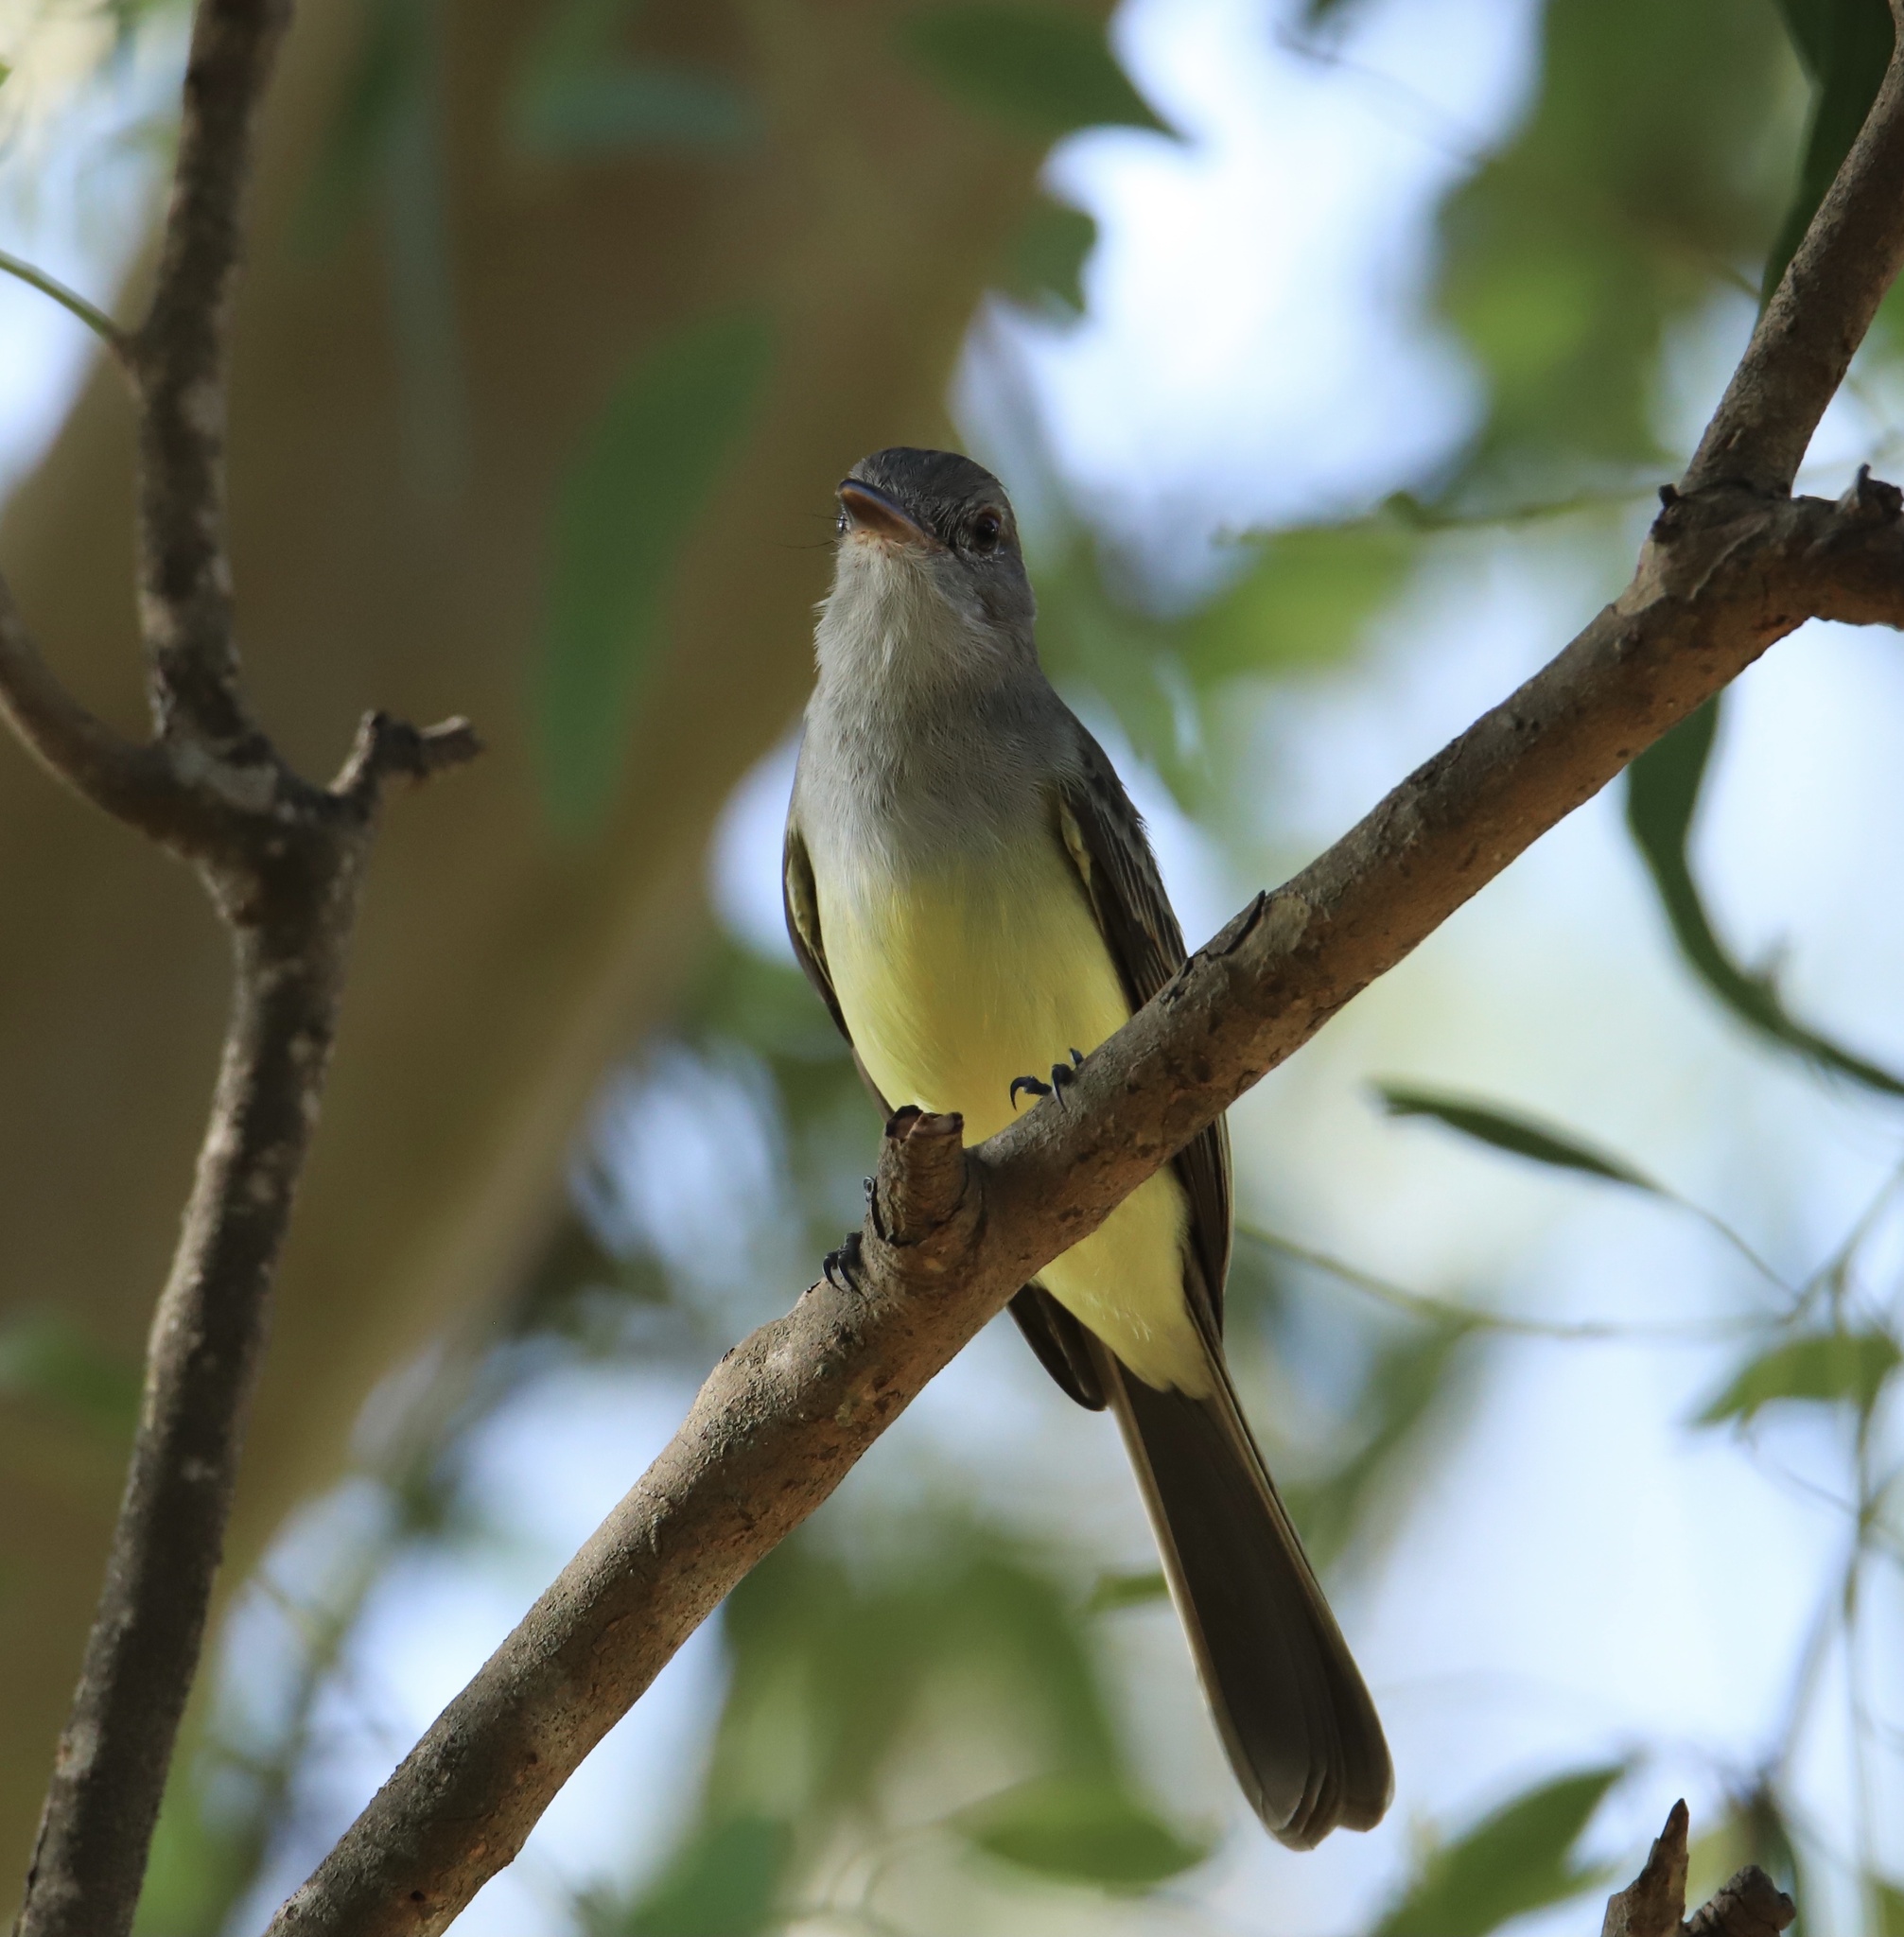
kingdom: Animalia
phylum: Chordata
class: Aves
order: Passeriformes
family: Tyrannidae
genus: Myiarchus
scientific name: Myiarchus panamensis
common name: Panama flycatcher
